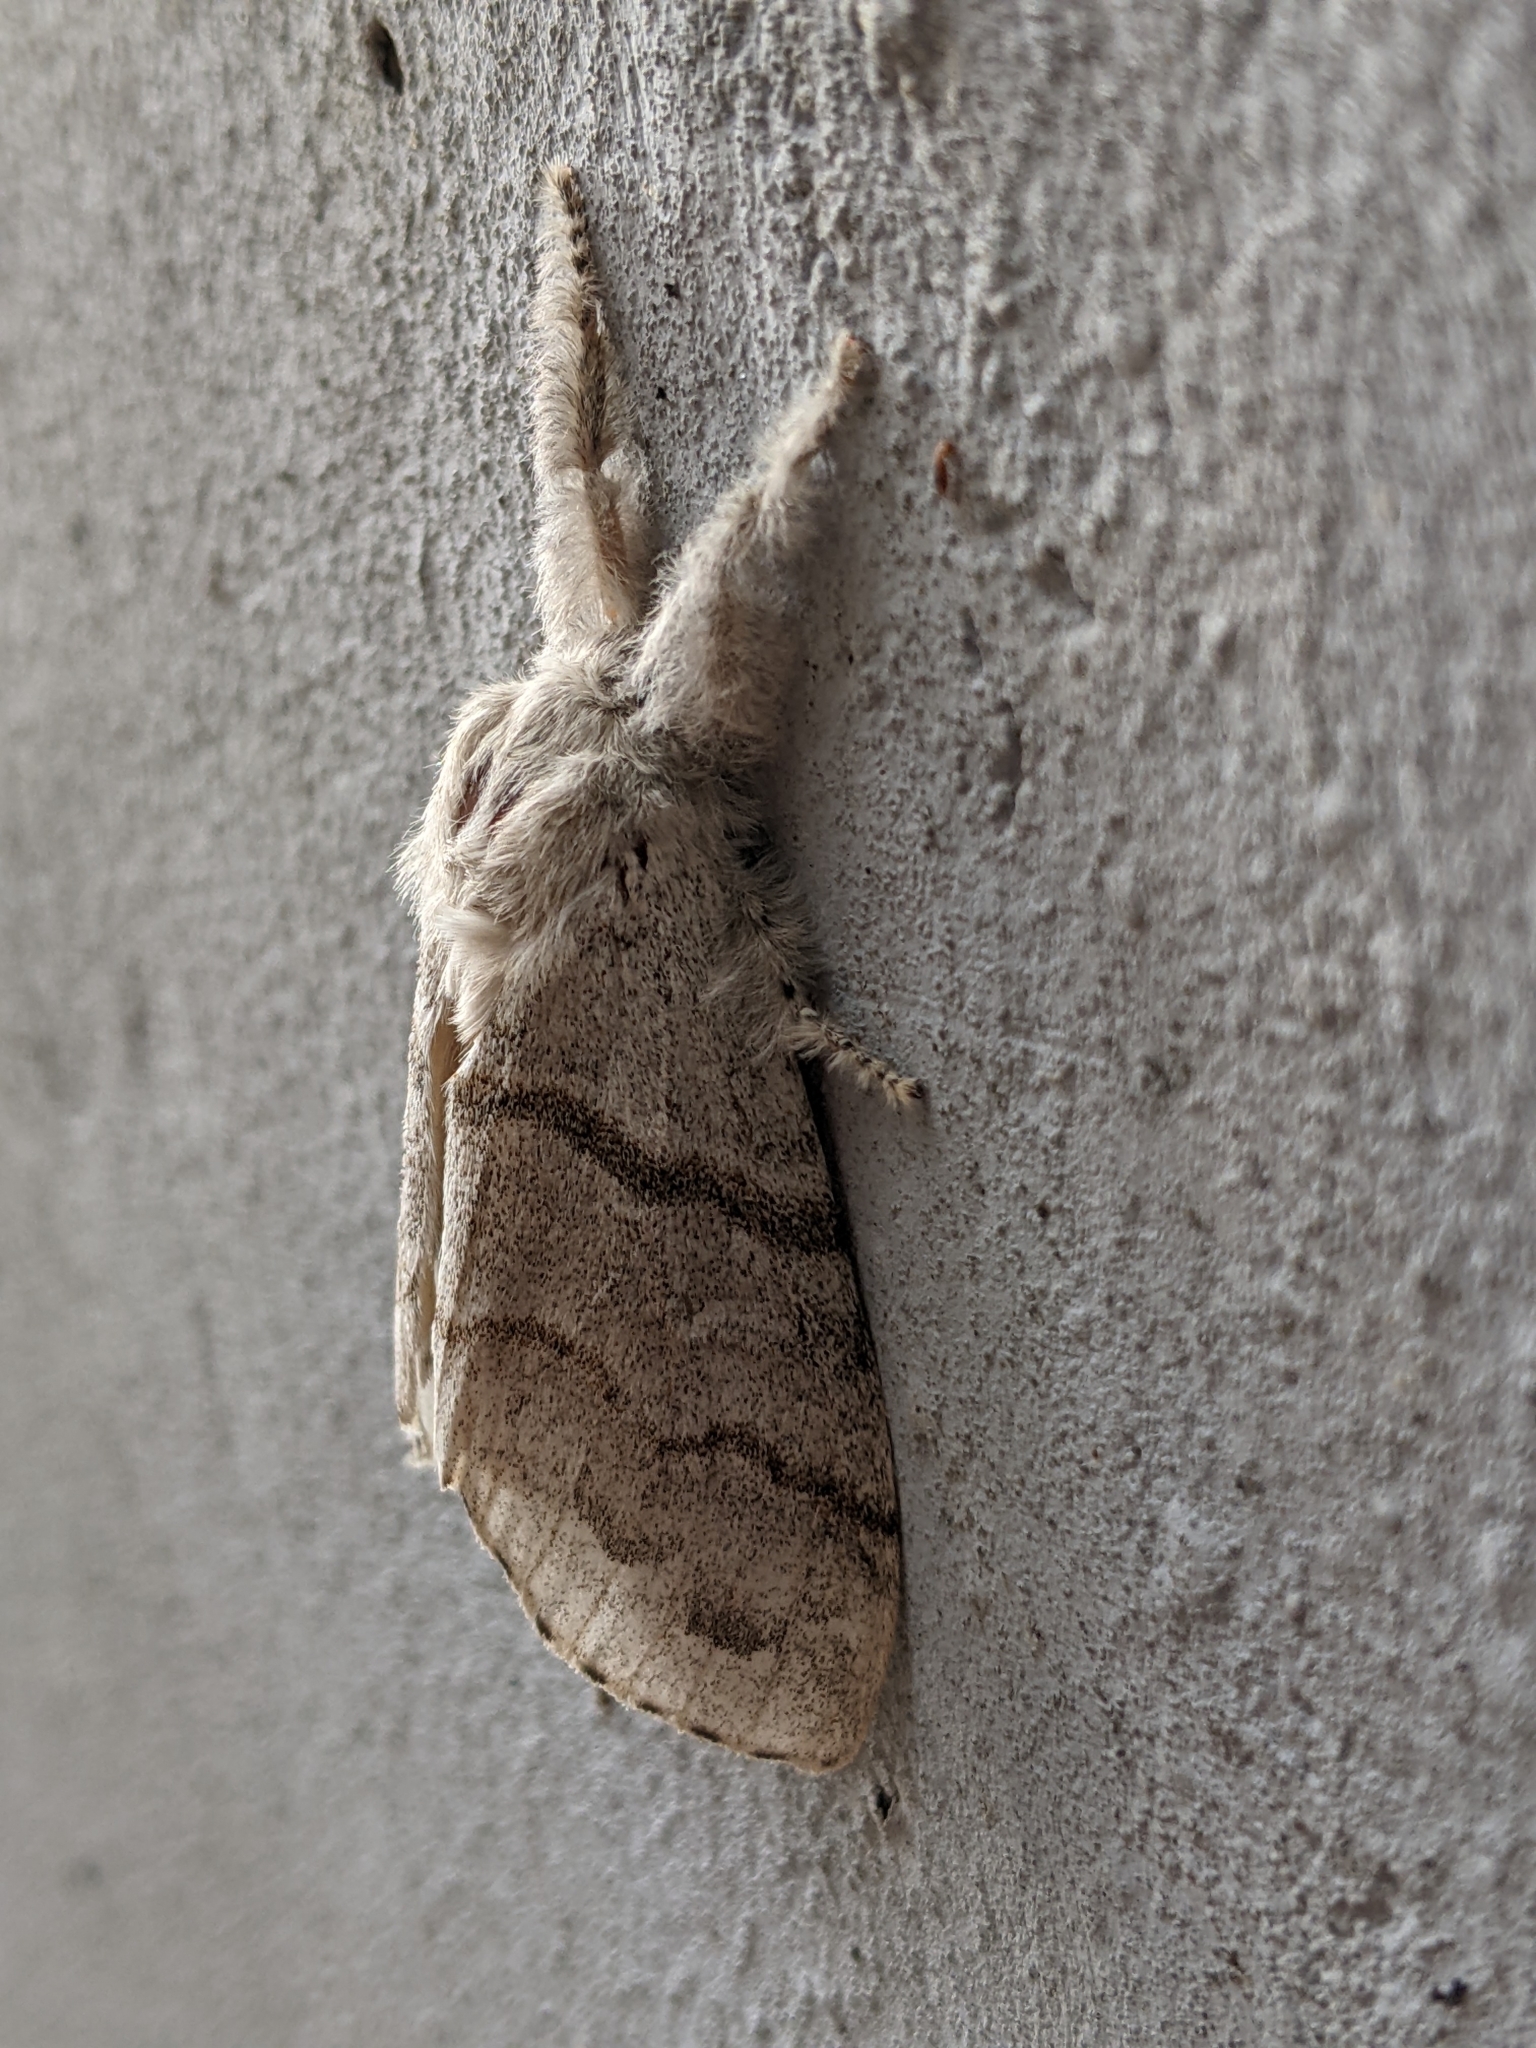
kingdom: Animalia
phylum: Arthropoda
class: Insecta
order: Lepidoptera
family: Erebidae
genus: Calliteara
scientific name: Calliteara pudibunda
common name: Pale tussock
